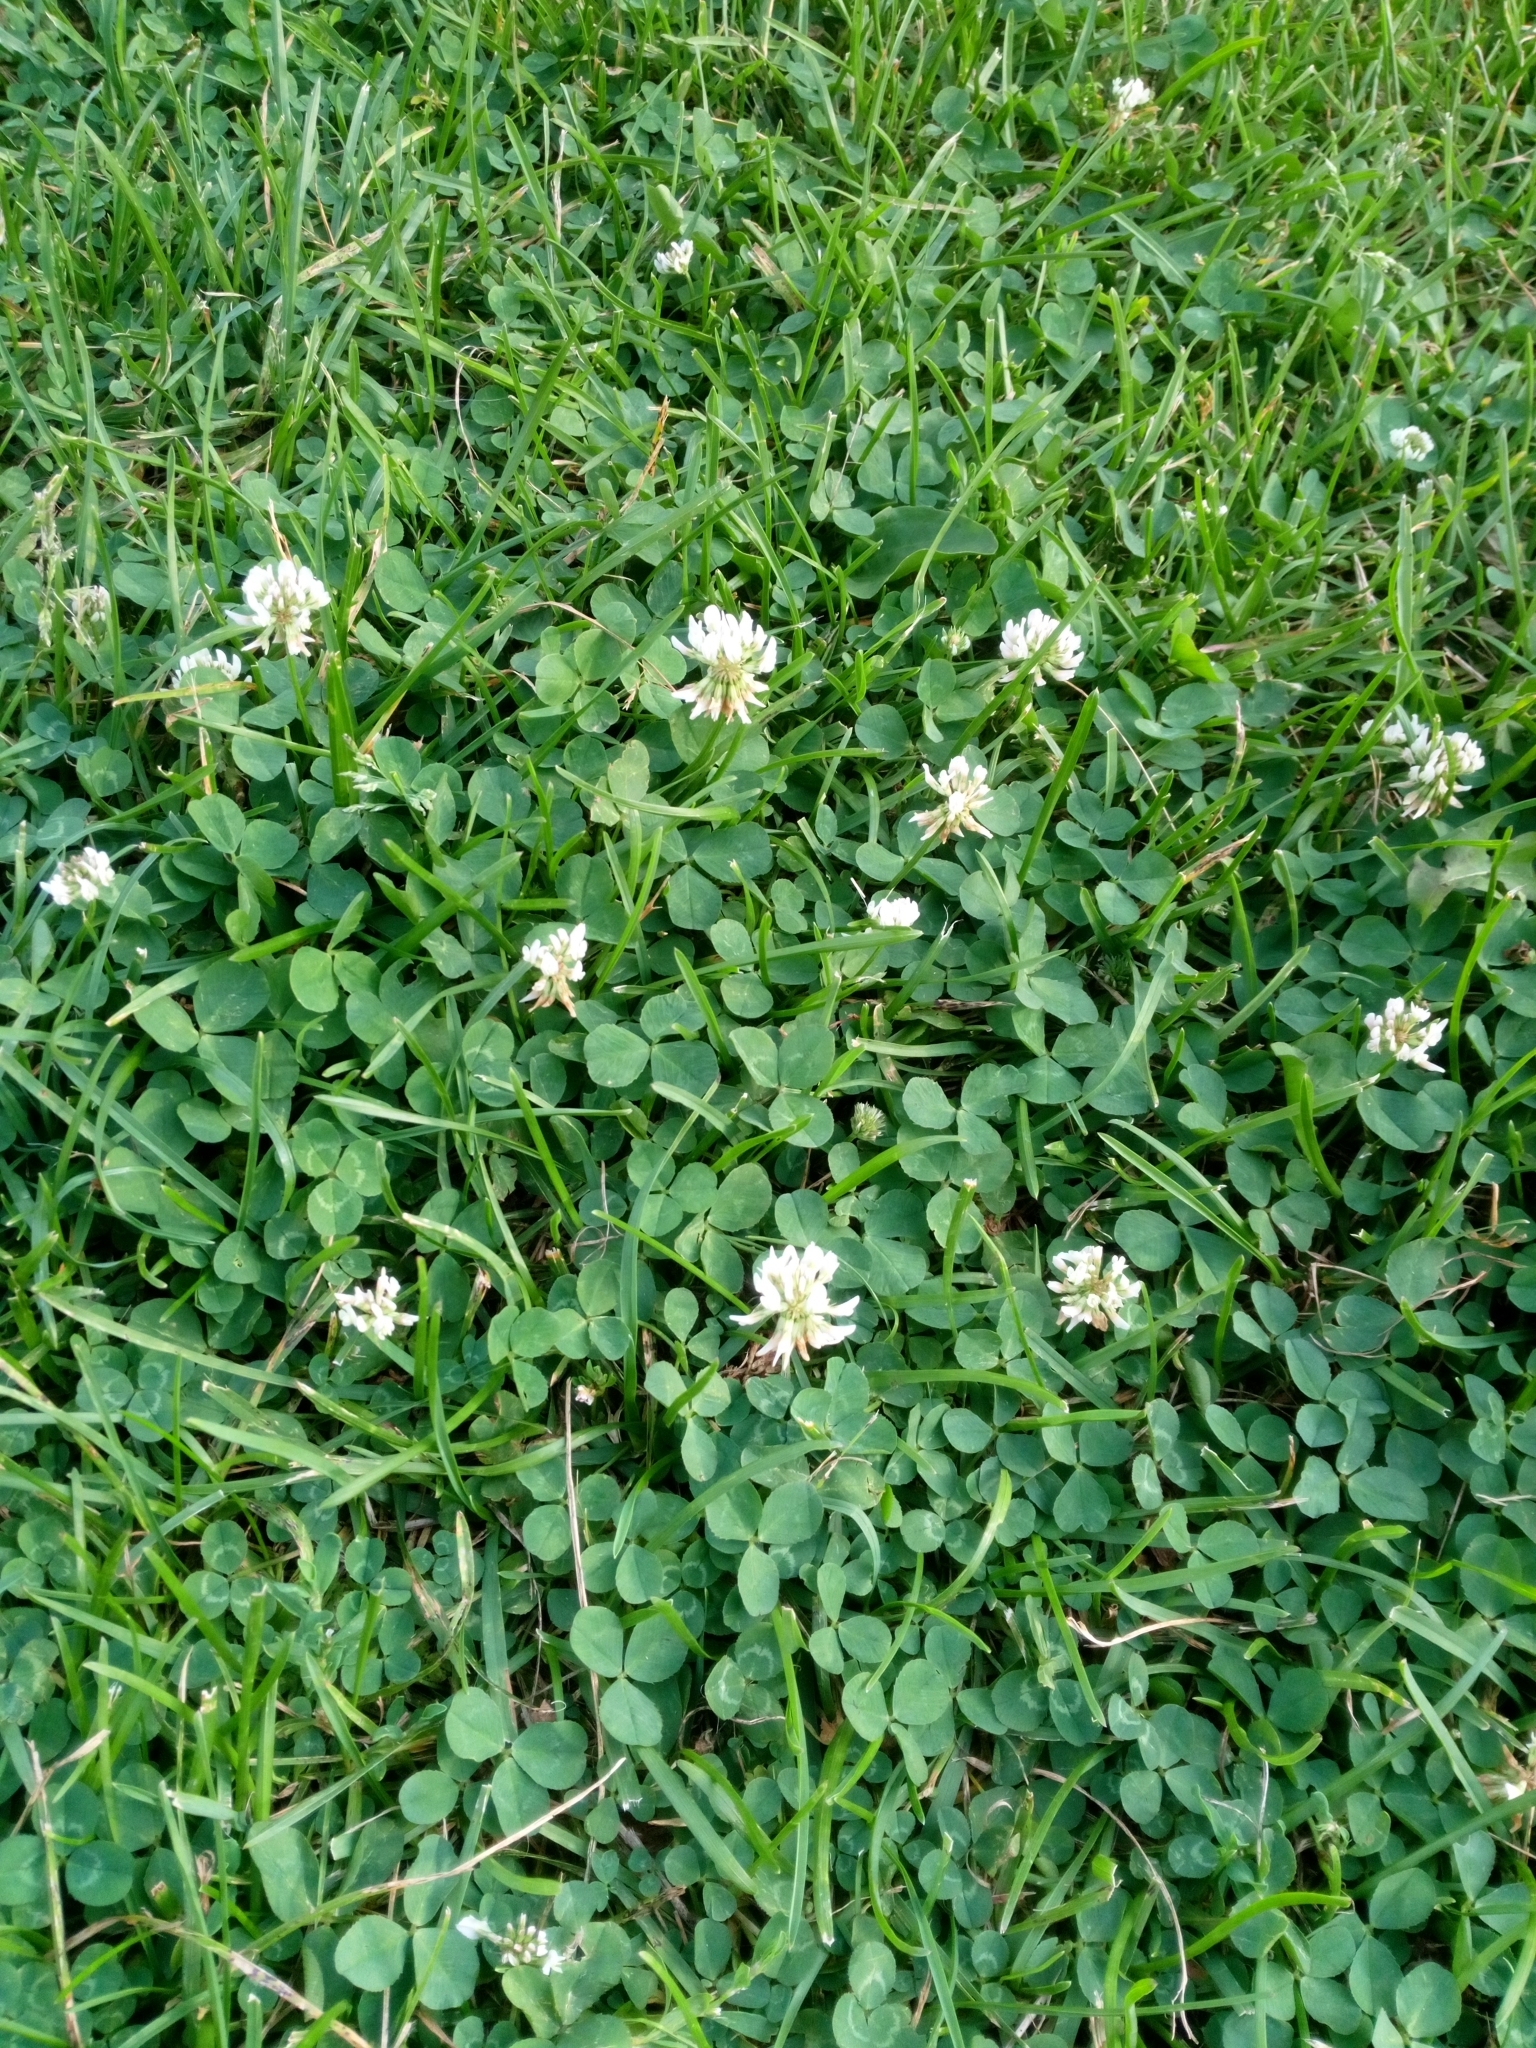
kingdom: Plantae
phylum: Tracheophyta
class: Magnoliopsida
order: Fabales
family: Fabaceae
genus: Trifolium
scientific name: Trifolium repens
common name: White clover
